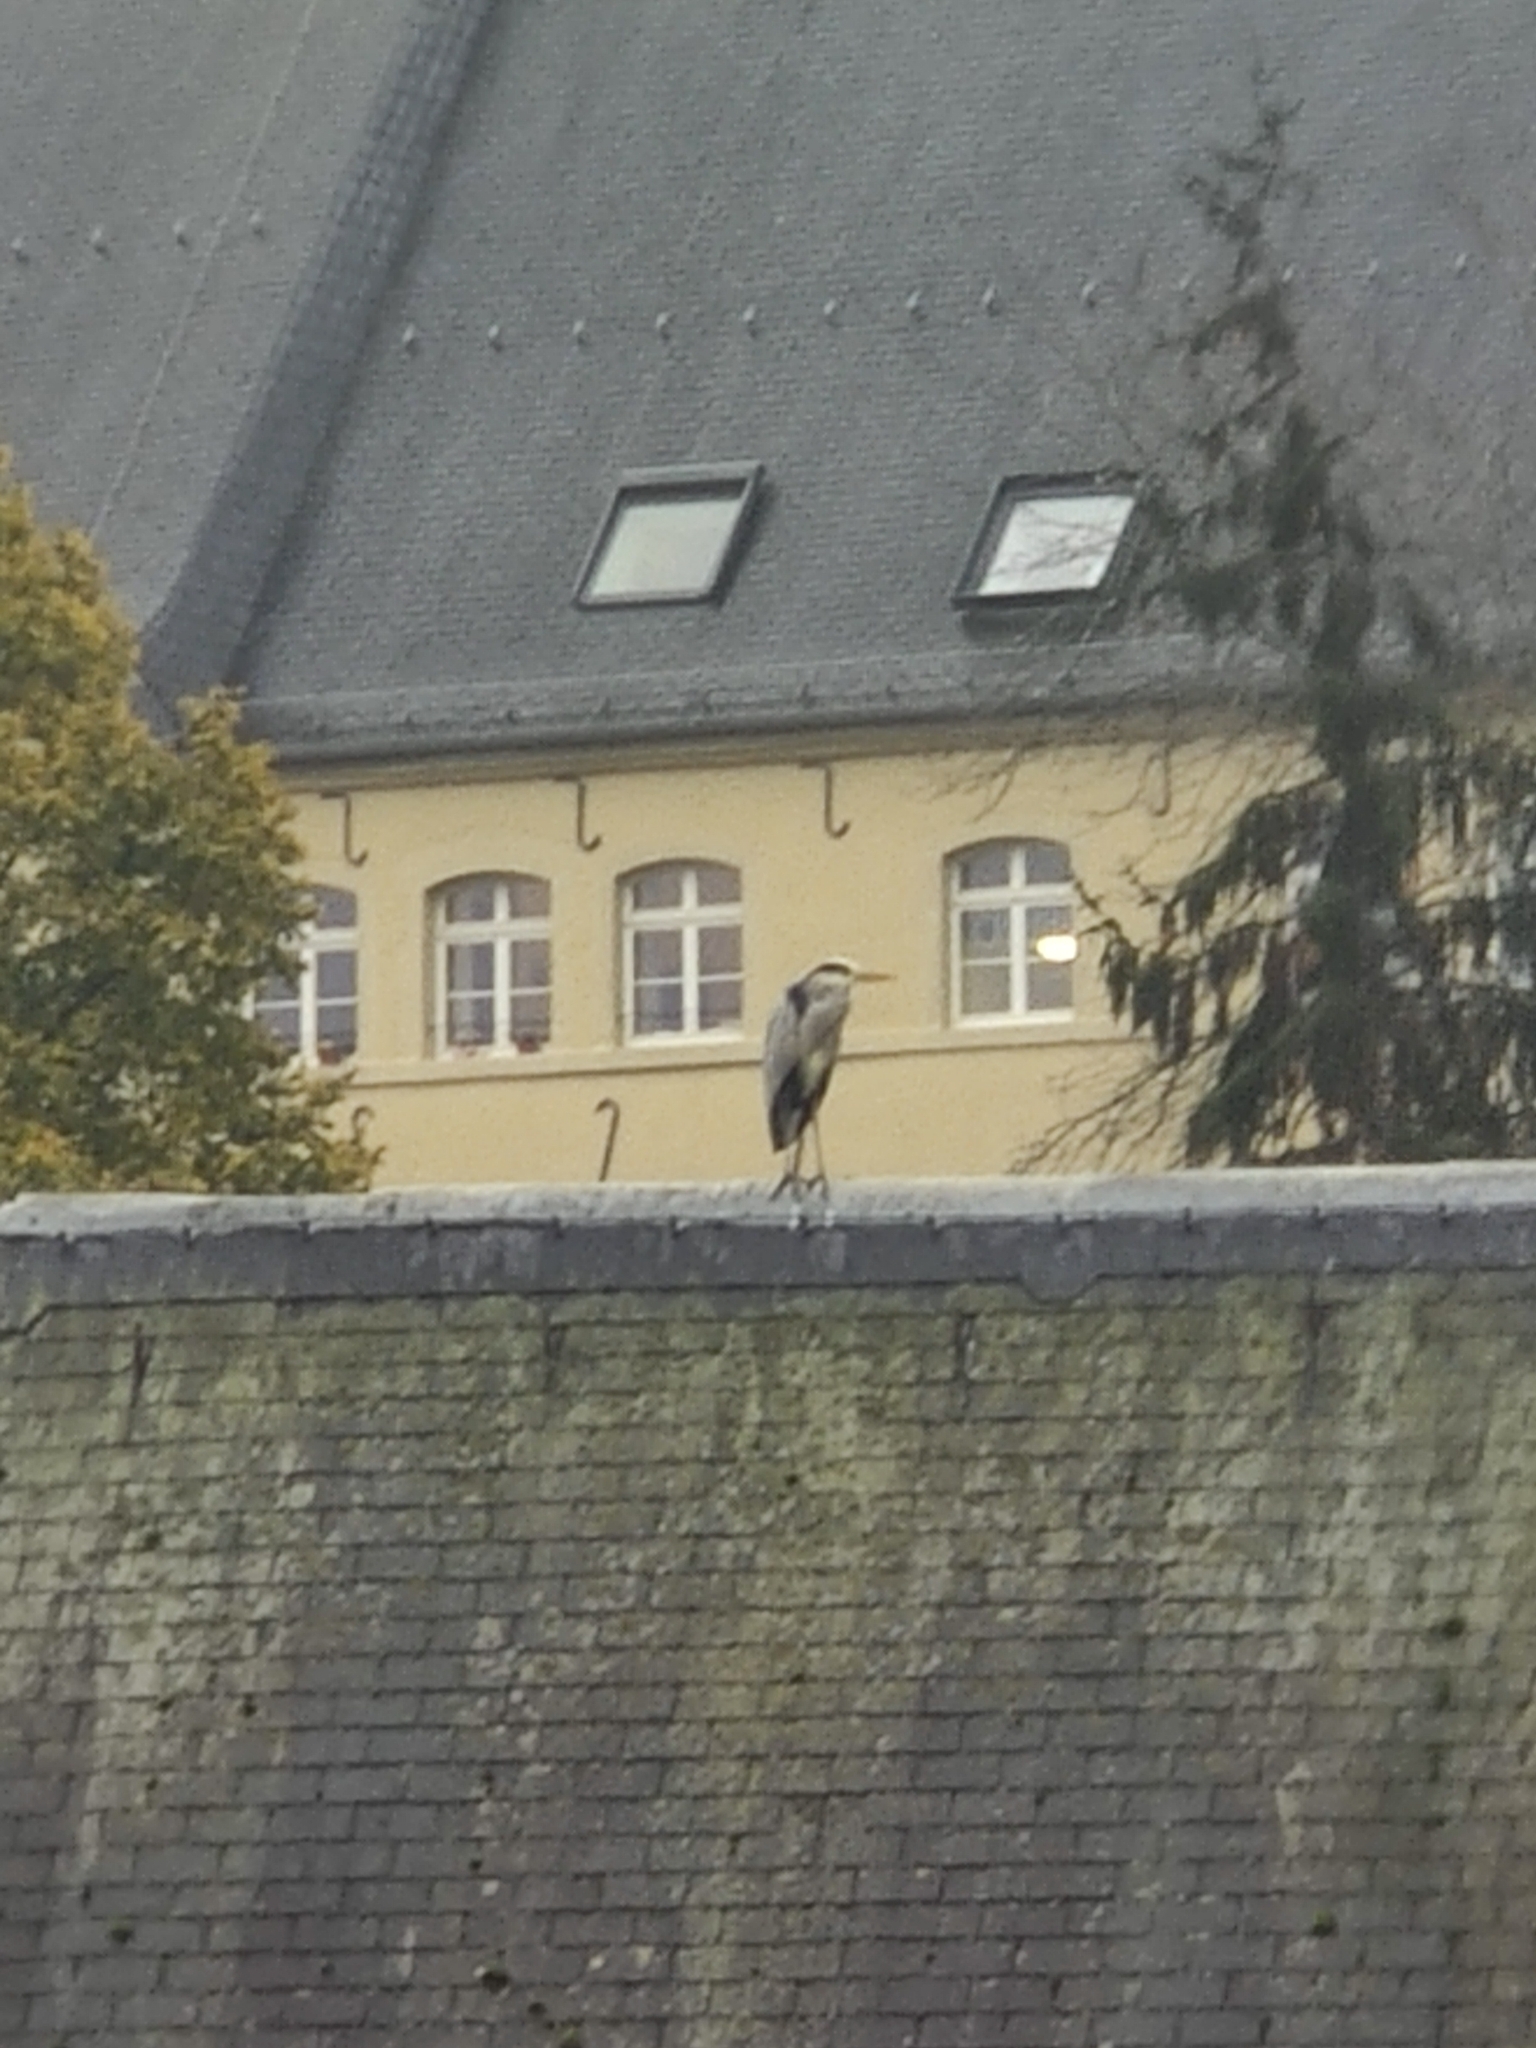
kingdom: Animalia
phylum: Chordata
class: Aves
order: Pelecaniformes
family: Ardeidae
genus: Ardea
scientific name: Ardea cinerea
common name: Grey heron
